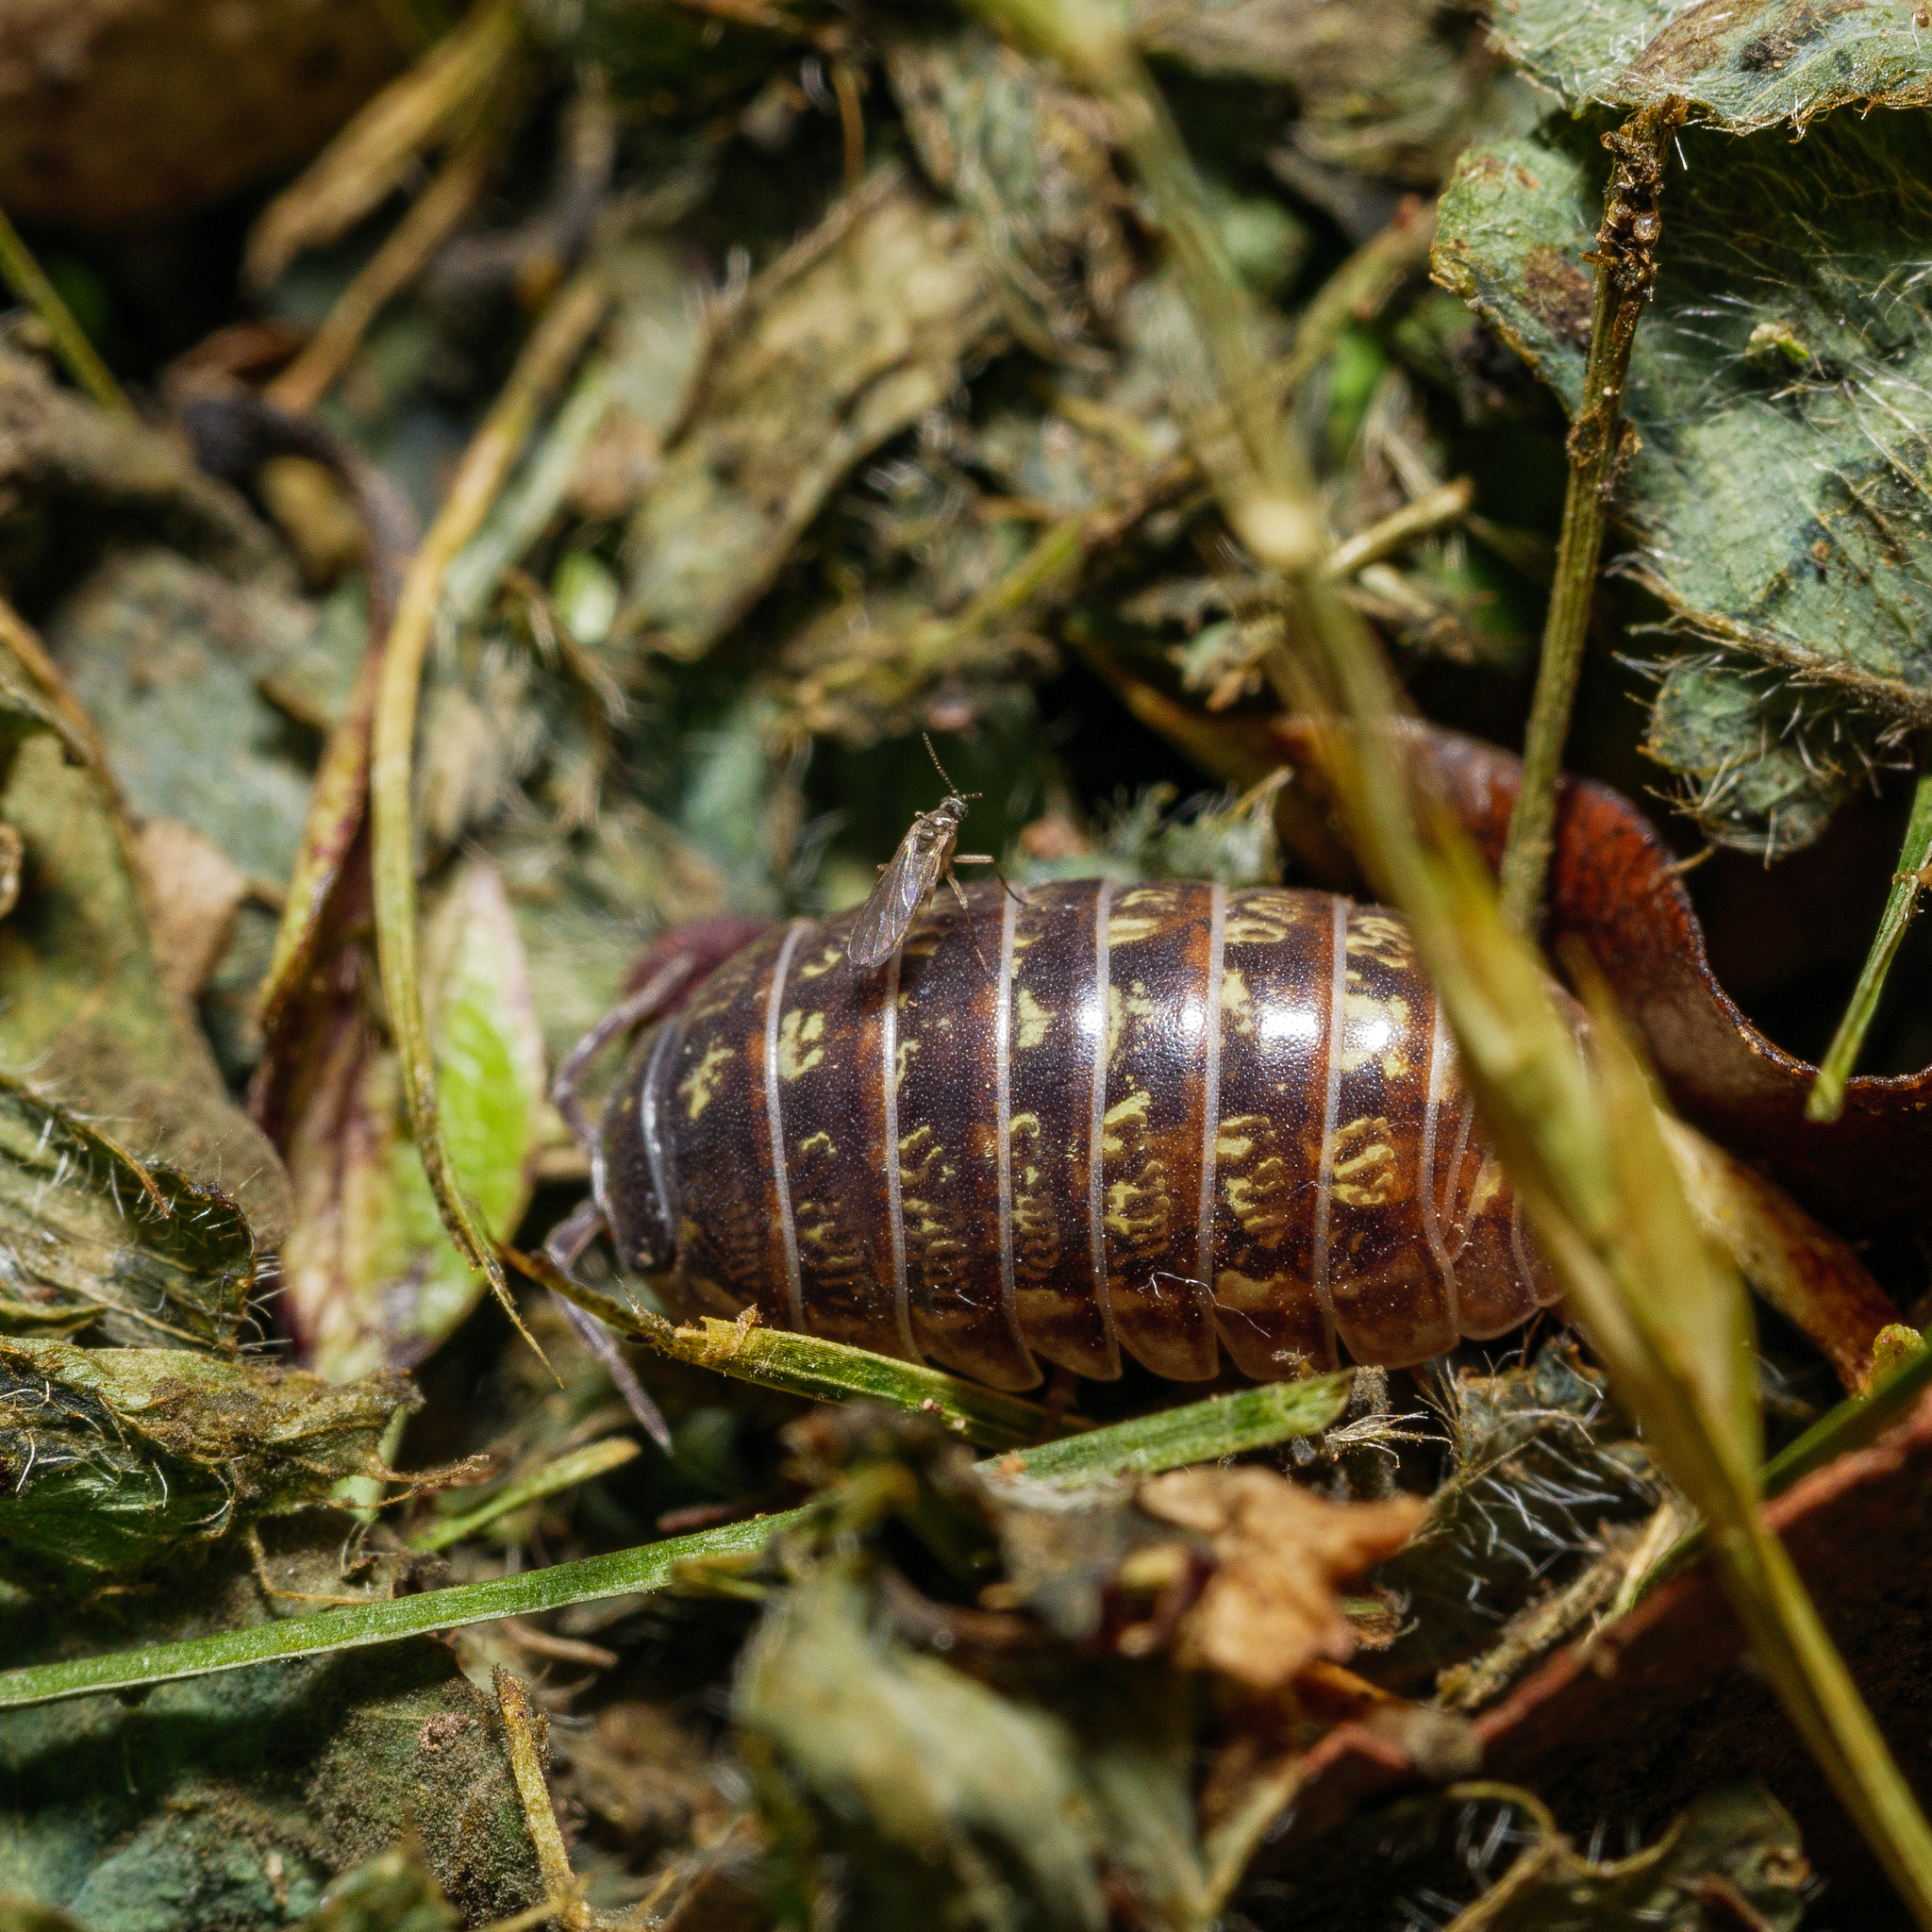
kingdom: Animalia
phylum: Arthropoda
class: Malacostraca
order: Isopoda
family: Armadillidiidae
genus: Armadillidium
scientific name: Armadillidium vulgare
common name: Common pill woodlouse
